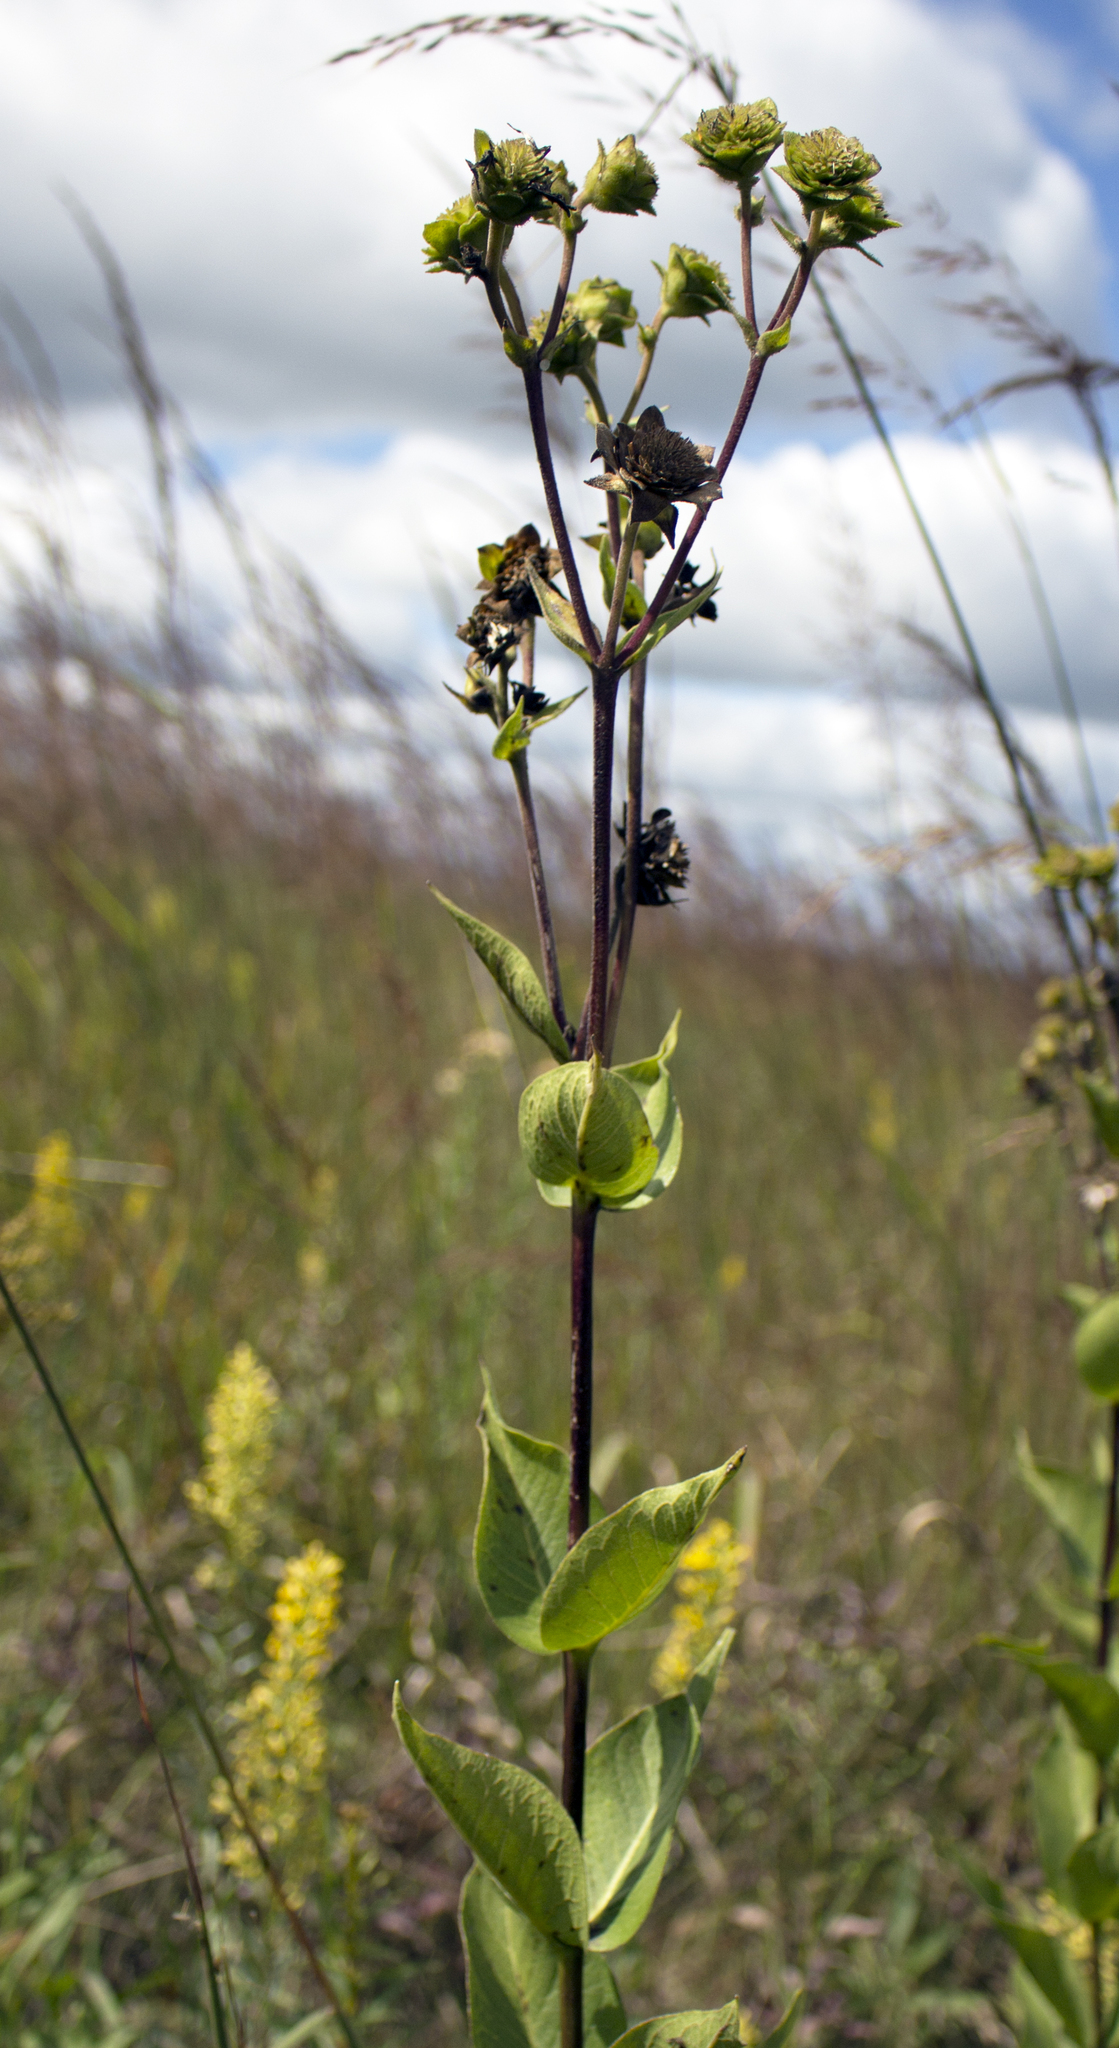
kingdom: Plantae
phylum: Tracheophyta
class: Magnoliopsida
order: Asterales
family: Asteraceae
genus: Silphium
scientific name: Silphium integrifolium
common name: Whole-leaf rosinweed
